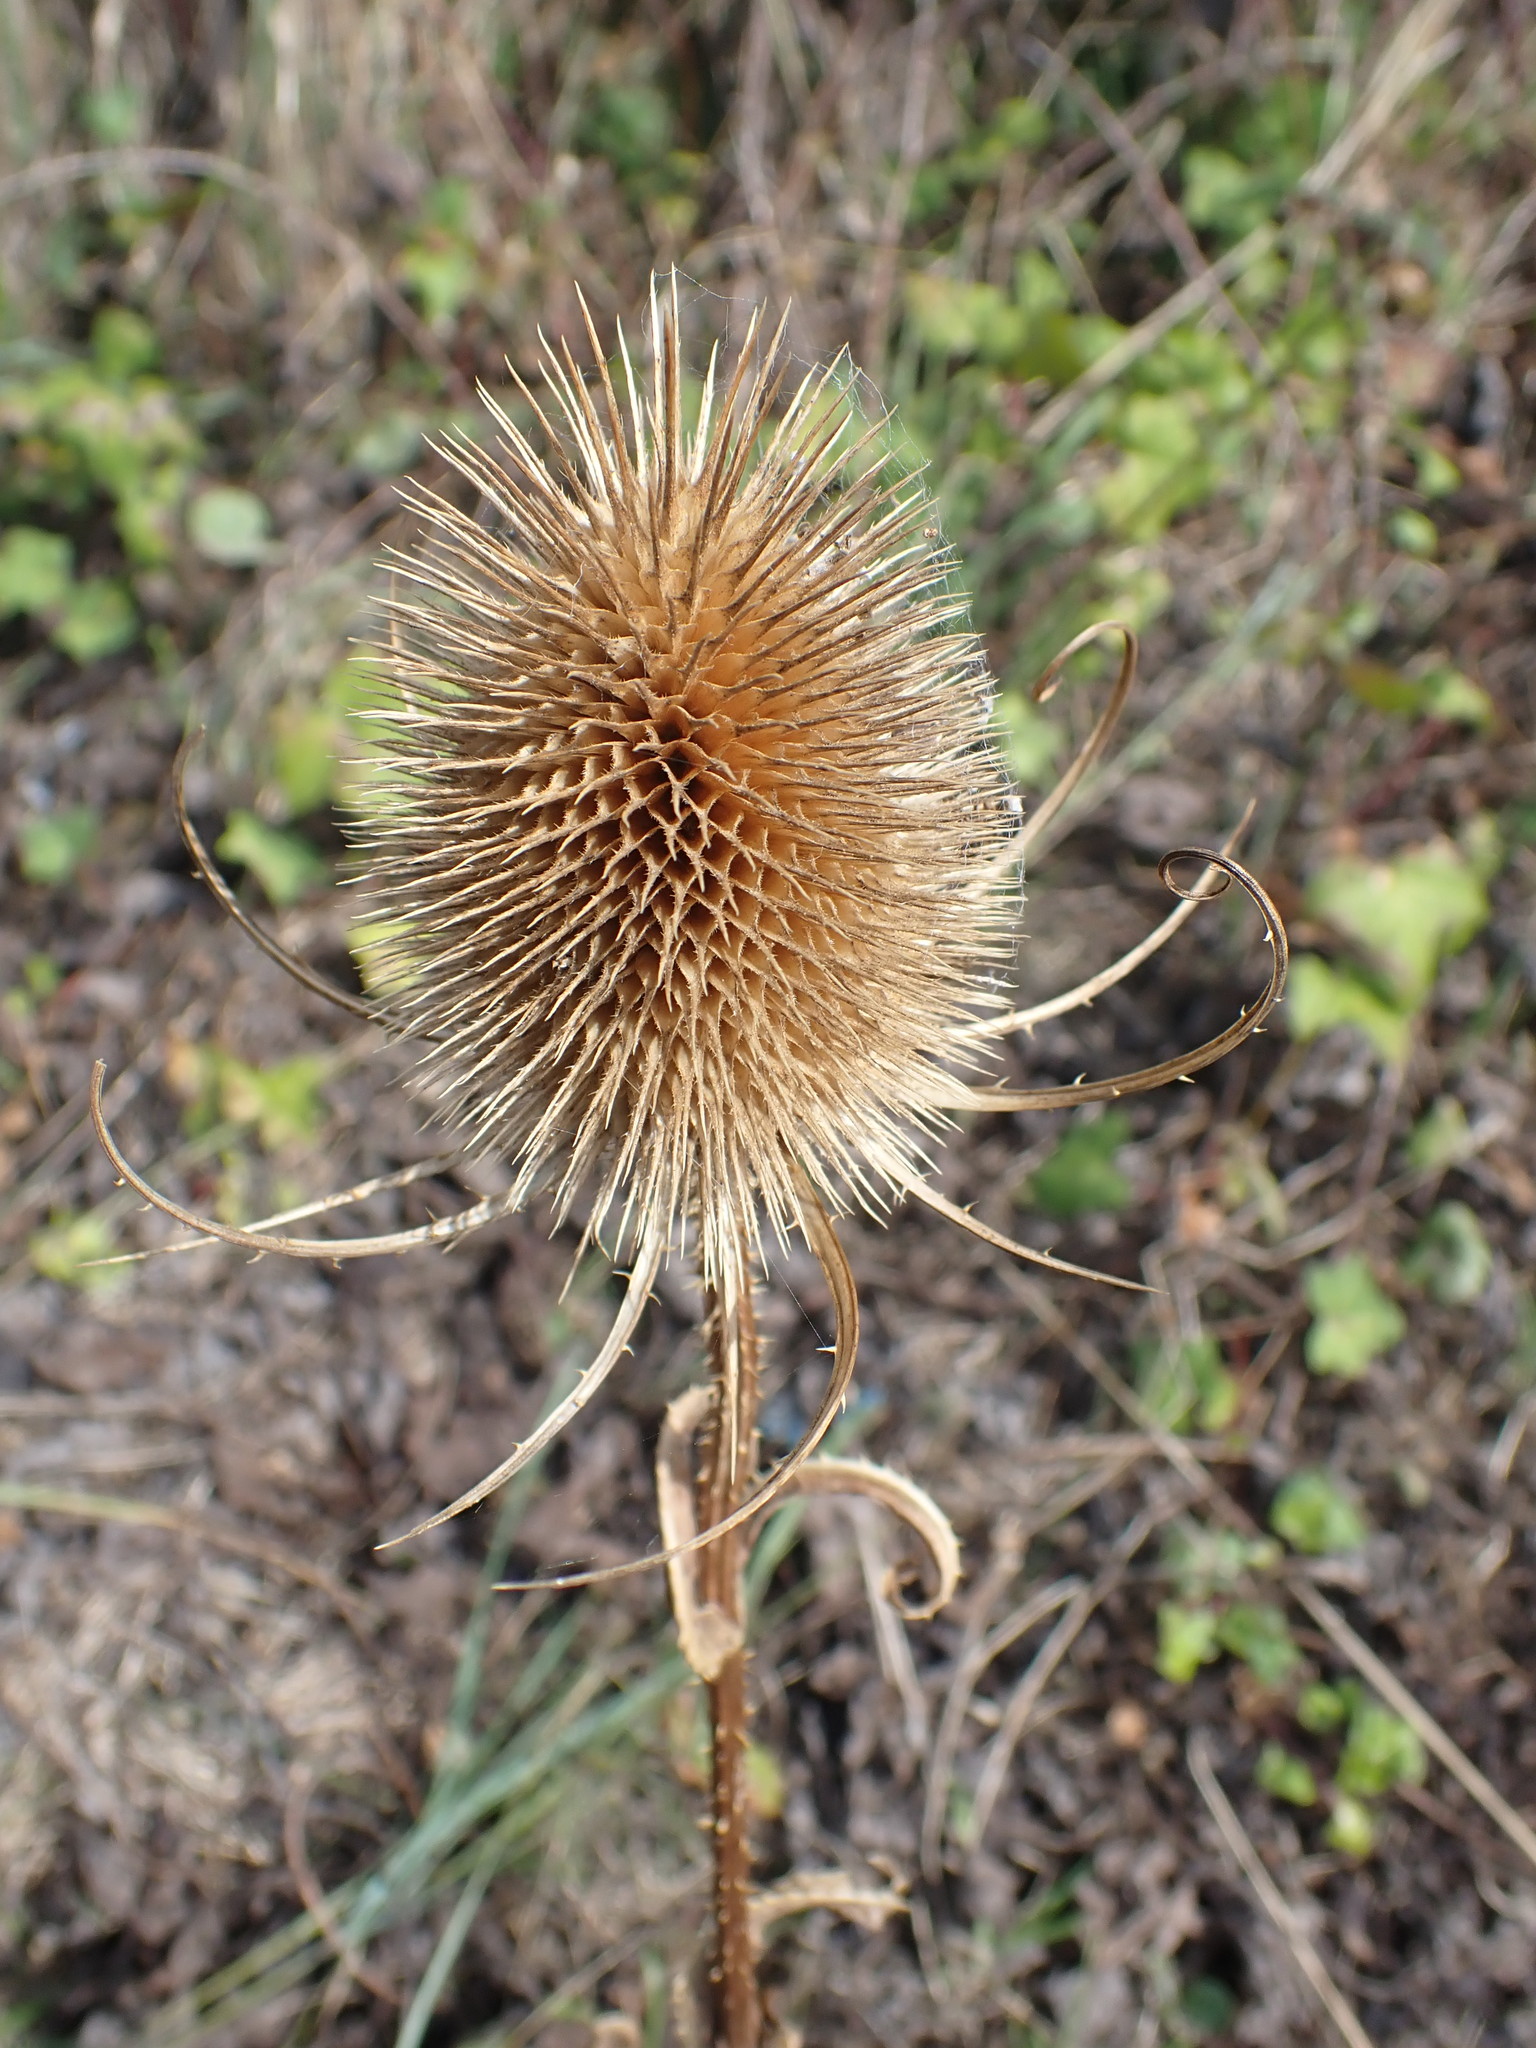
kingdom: Plantae
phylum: Tracheophyta
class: Magnoliopsida
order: Dipsacales
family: Caprifoliaceae
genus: Dipsacus
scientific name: Dipsacus fullonum
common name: Teasel
